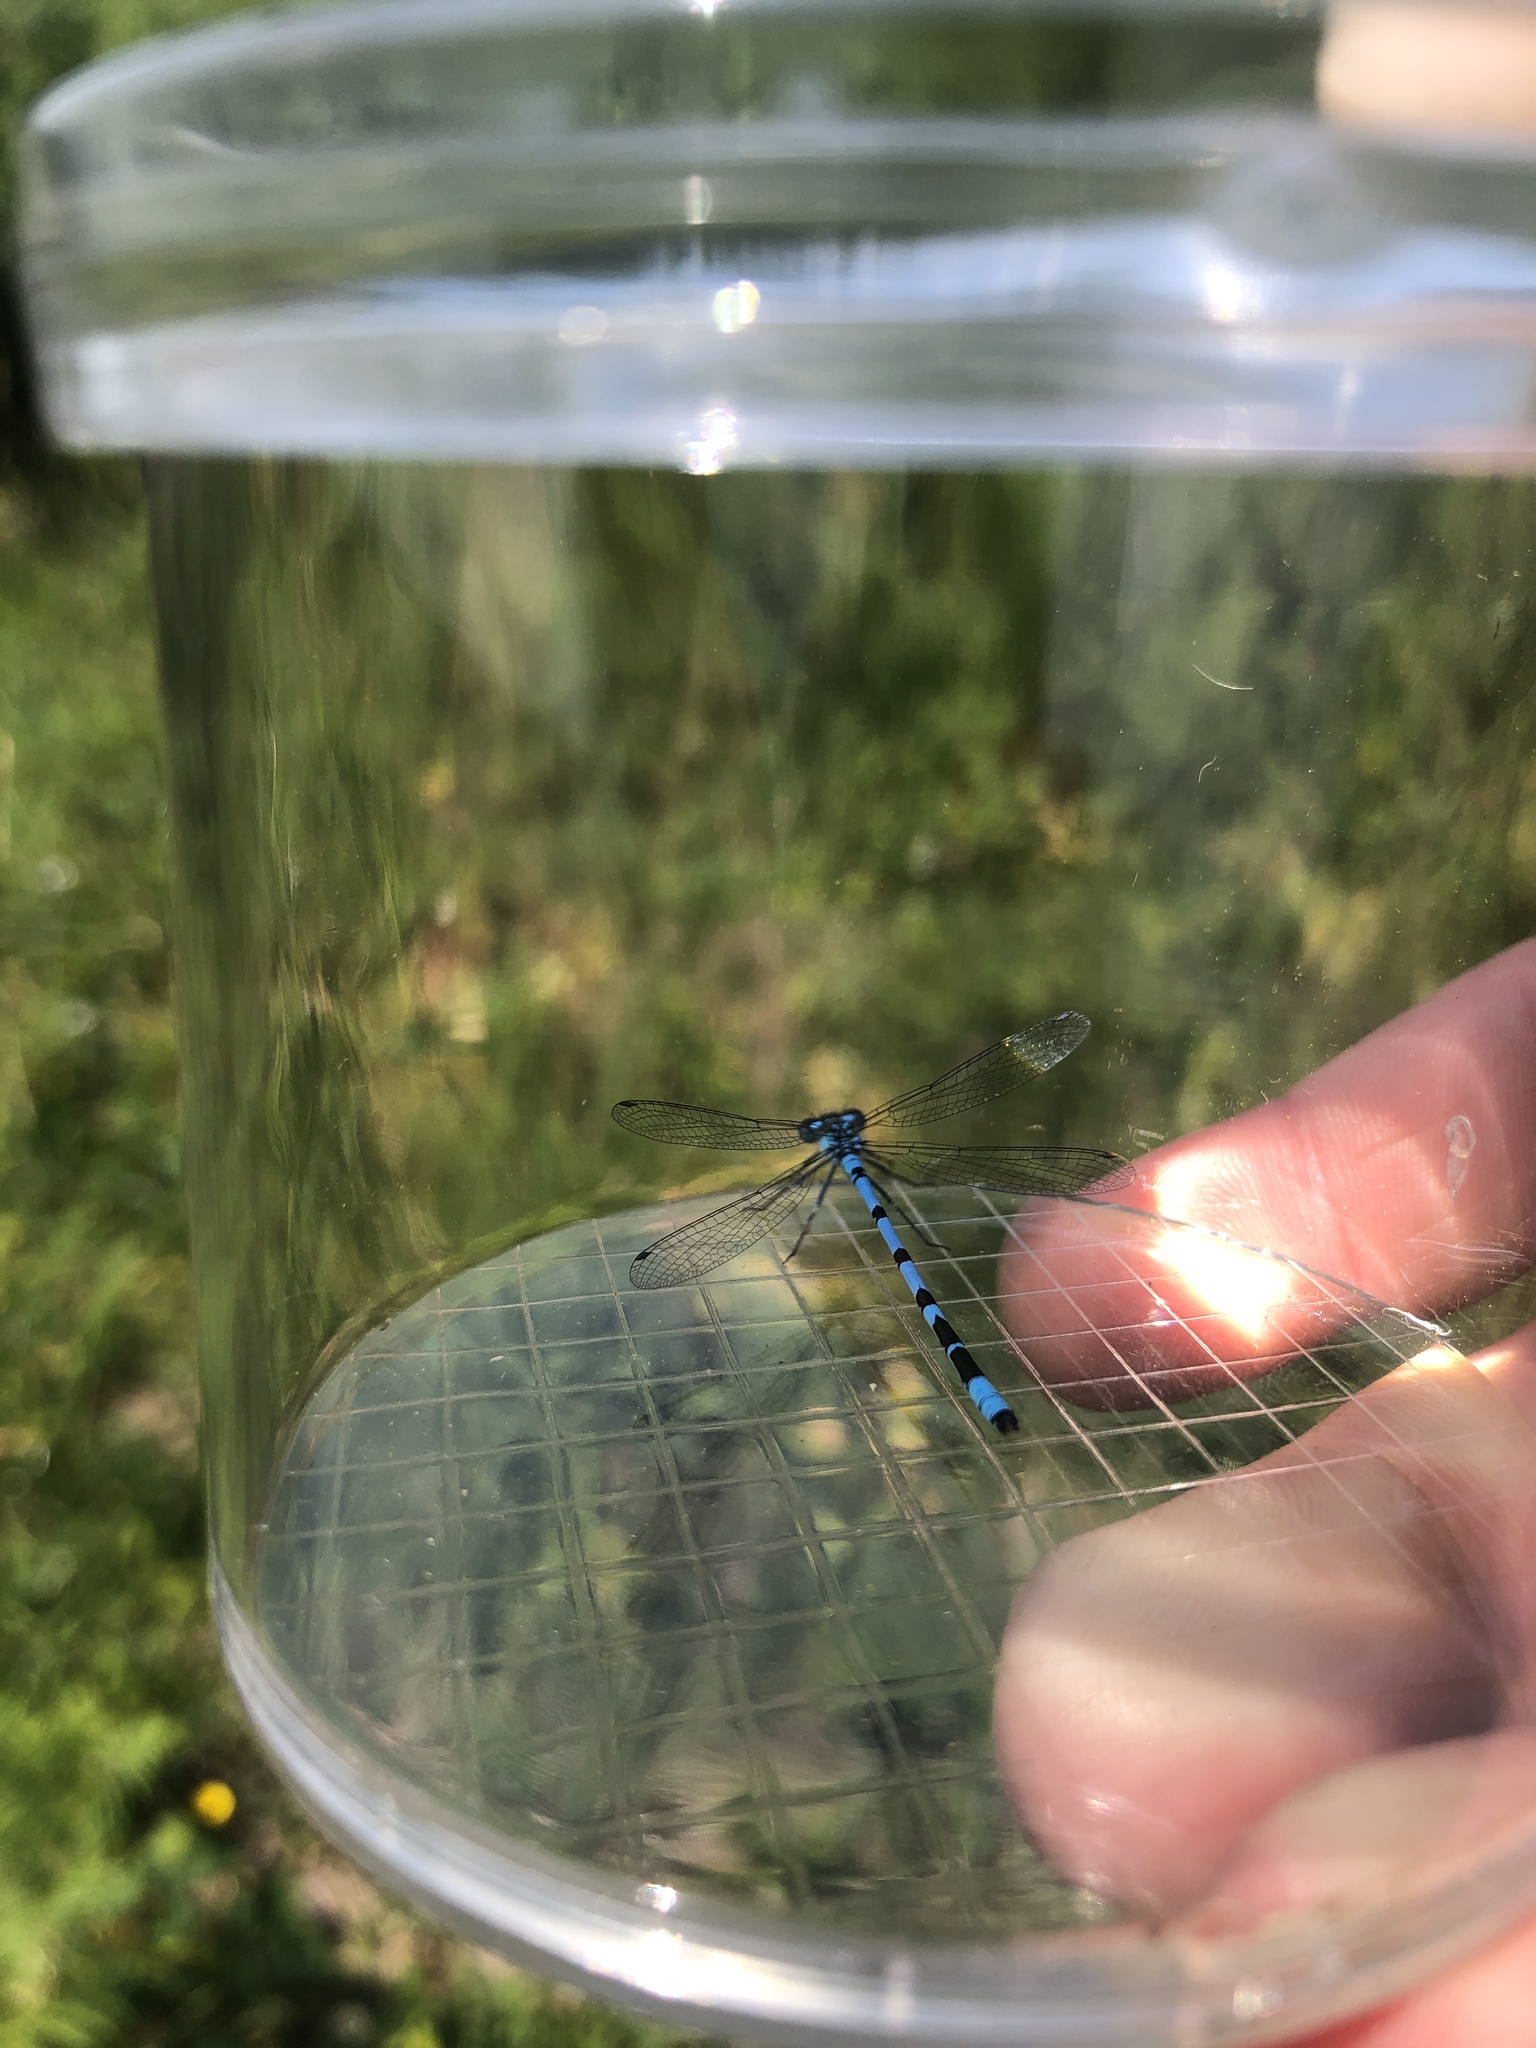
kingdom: Animalia
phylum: Arthropoda
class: Insecta
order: Odonata
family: Coenagrionidae
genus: Enallagma
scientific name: Enallagma cyathigerum
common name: Common blue damselfly
